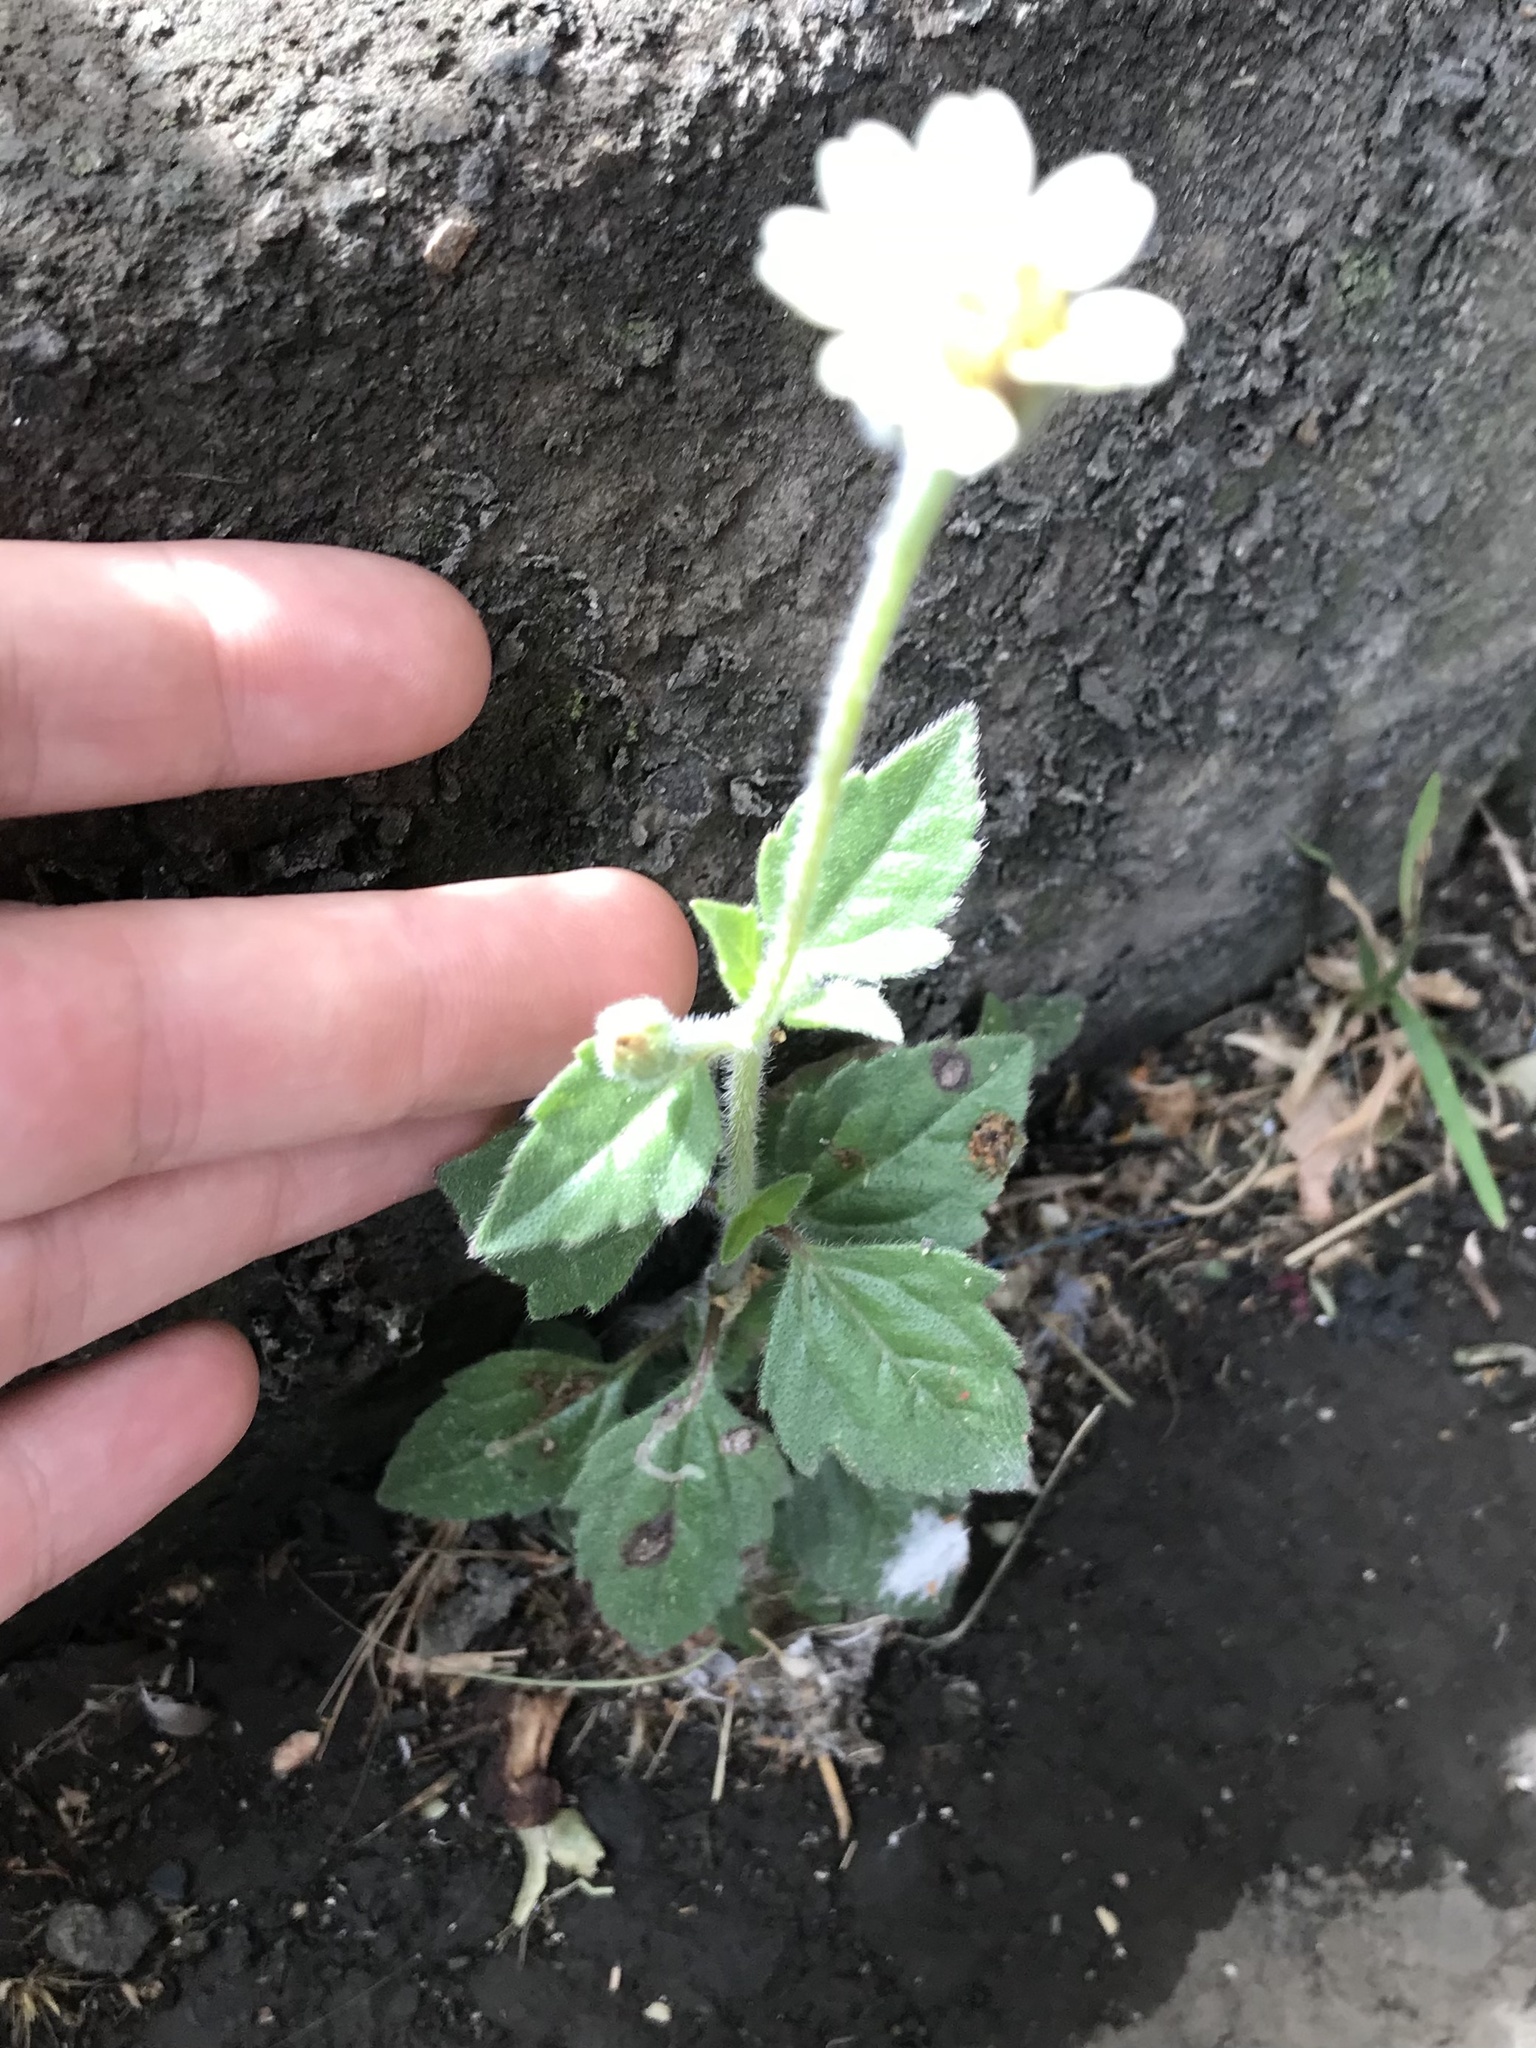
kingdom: Plantae
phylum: Tracheophyta
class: Magnoliopsida
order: Asterales
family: Asteraceae
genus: Tridax
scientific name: Tridax procumbens
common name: Coatbuttons
